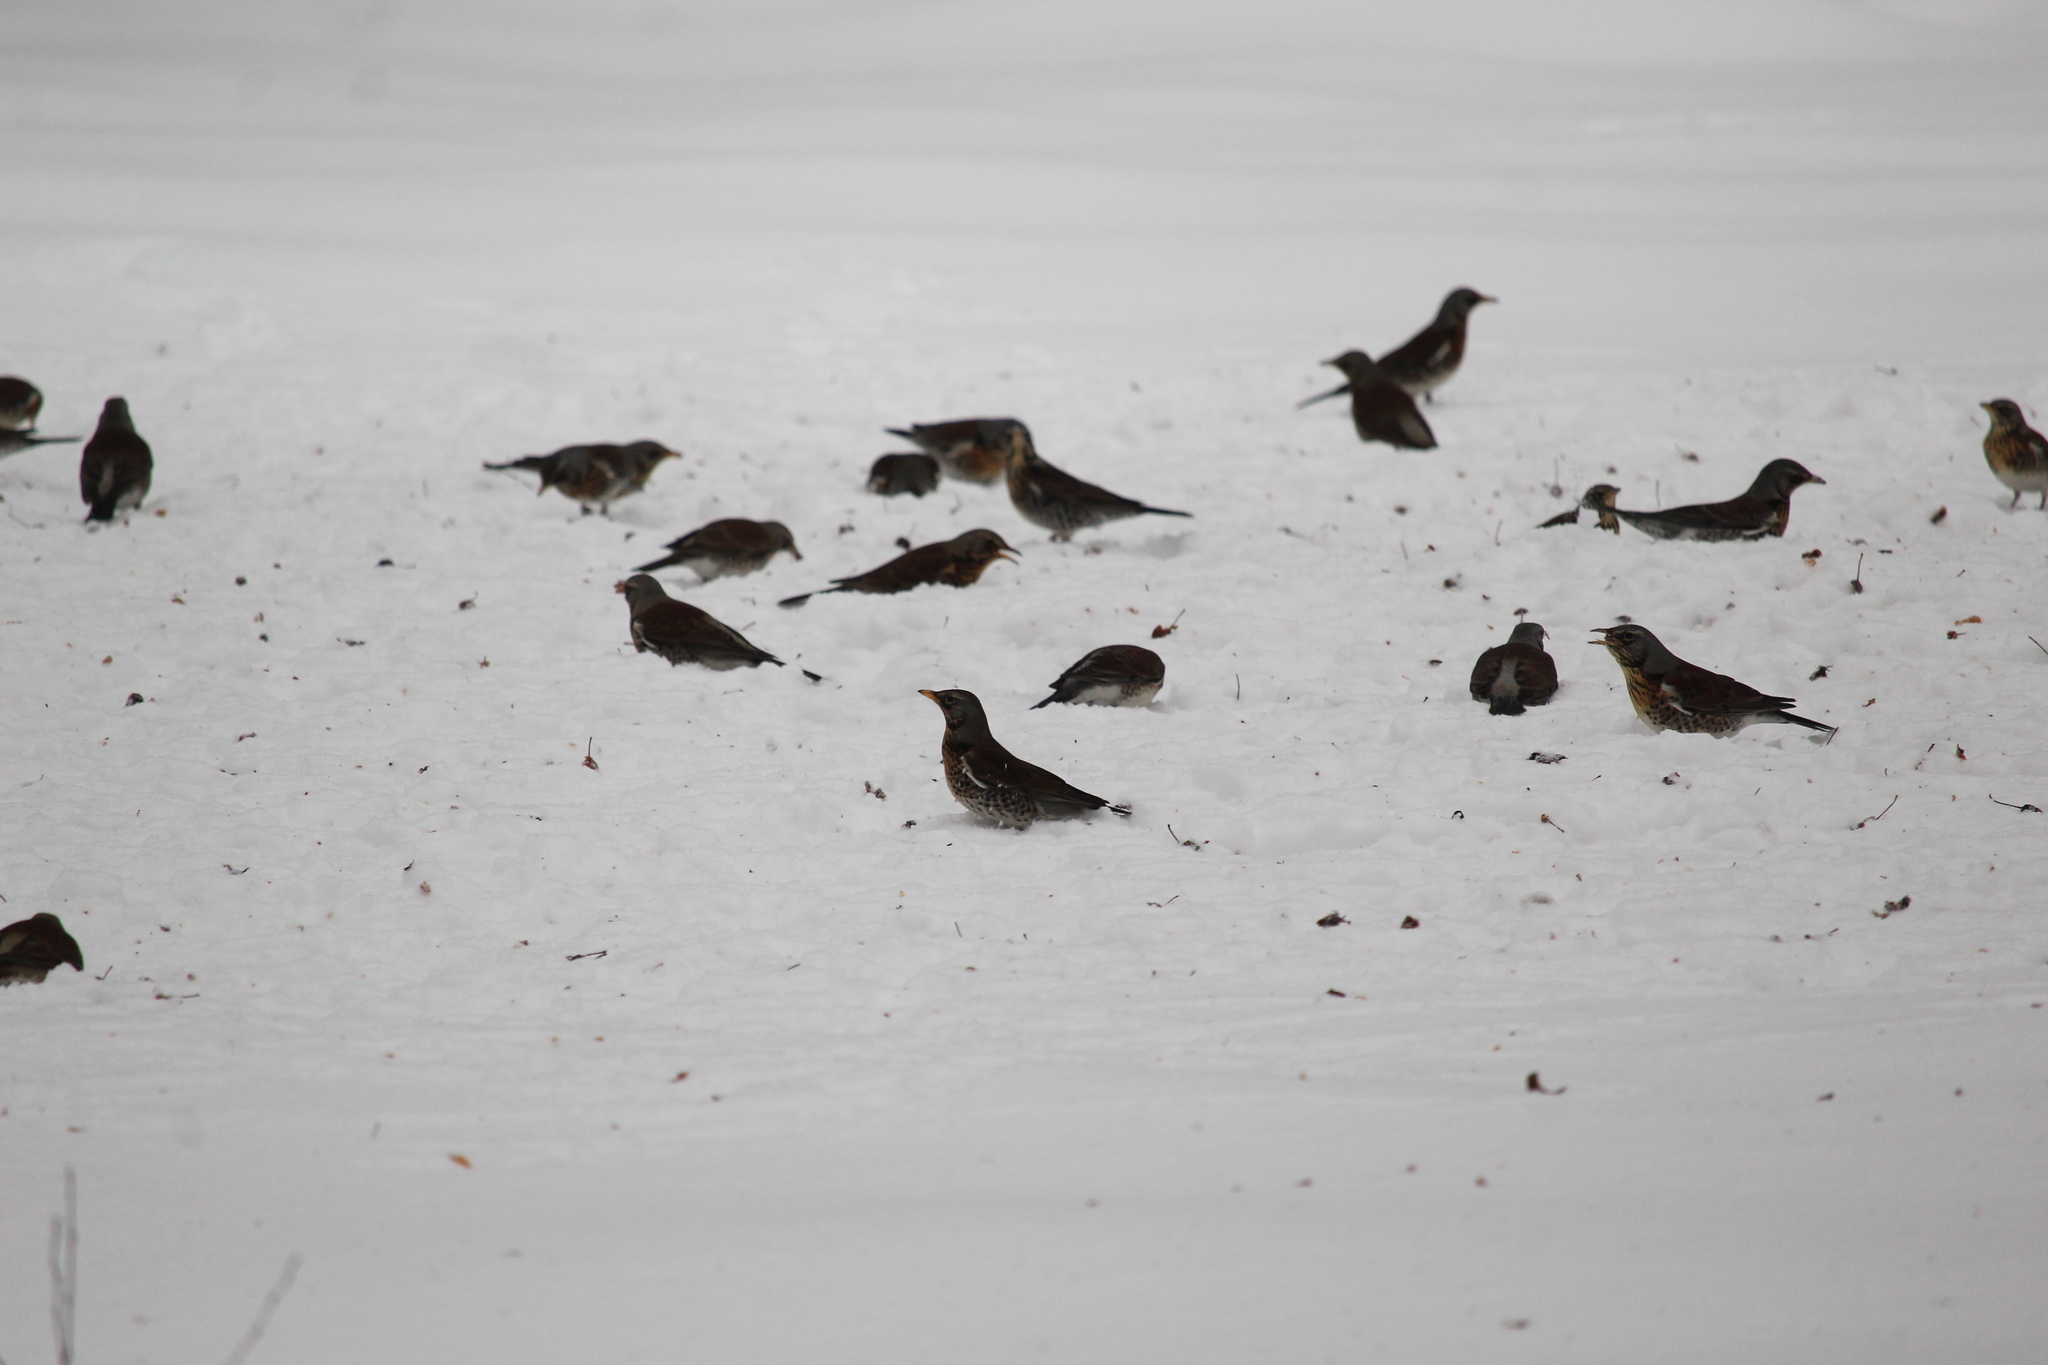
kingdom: Animalia
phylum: Chordata
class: Aves
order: Passeriformes
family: Turdidae
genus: Turdus
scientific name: Turdus pilaris
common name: Fieldfare
